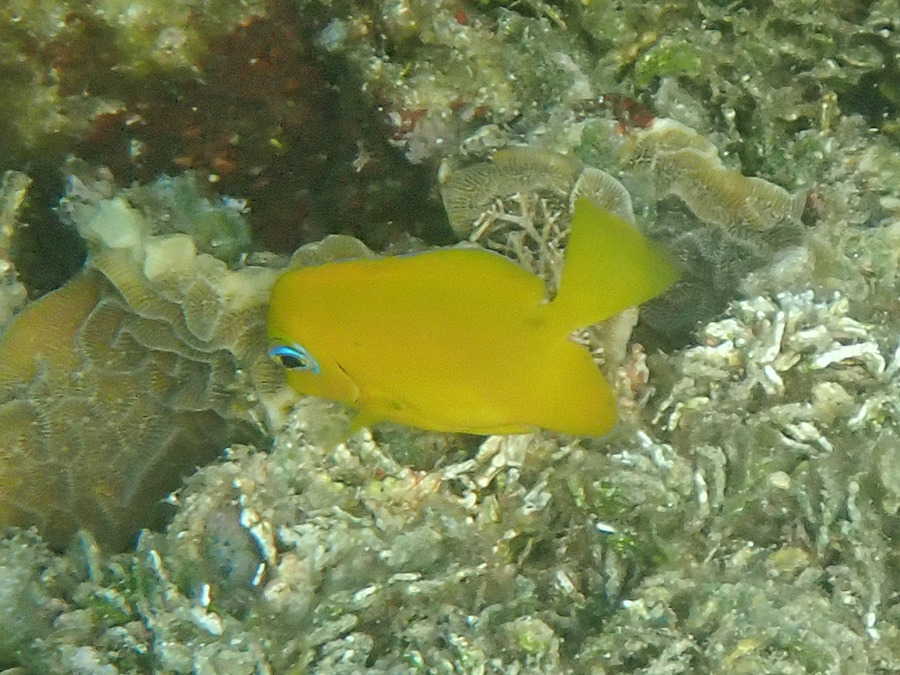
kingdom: Animalia
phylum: Chordata
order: Perciformes
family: Acanthuridae
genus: Acanthurus
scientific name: Acanthurus coeruleus
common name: Blue tang
